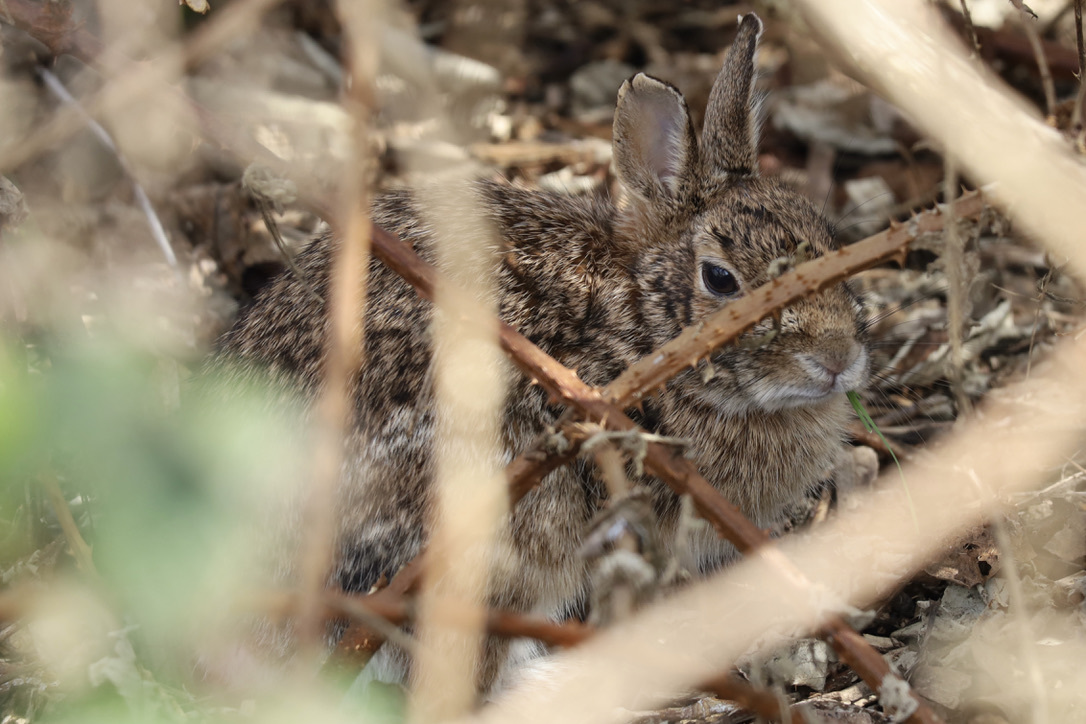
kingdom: Animalia
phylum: Chordata
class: Mammalia
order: Lagomorpha
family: Leporidae
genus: Sylvilagus
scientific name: Sylvilagus floridanus
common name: Eastern cottontail
